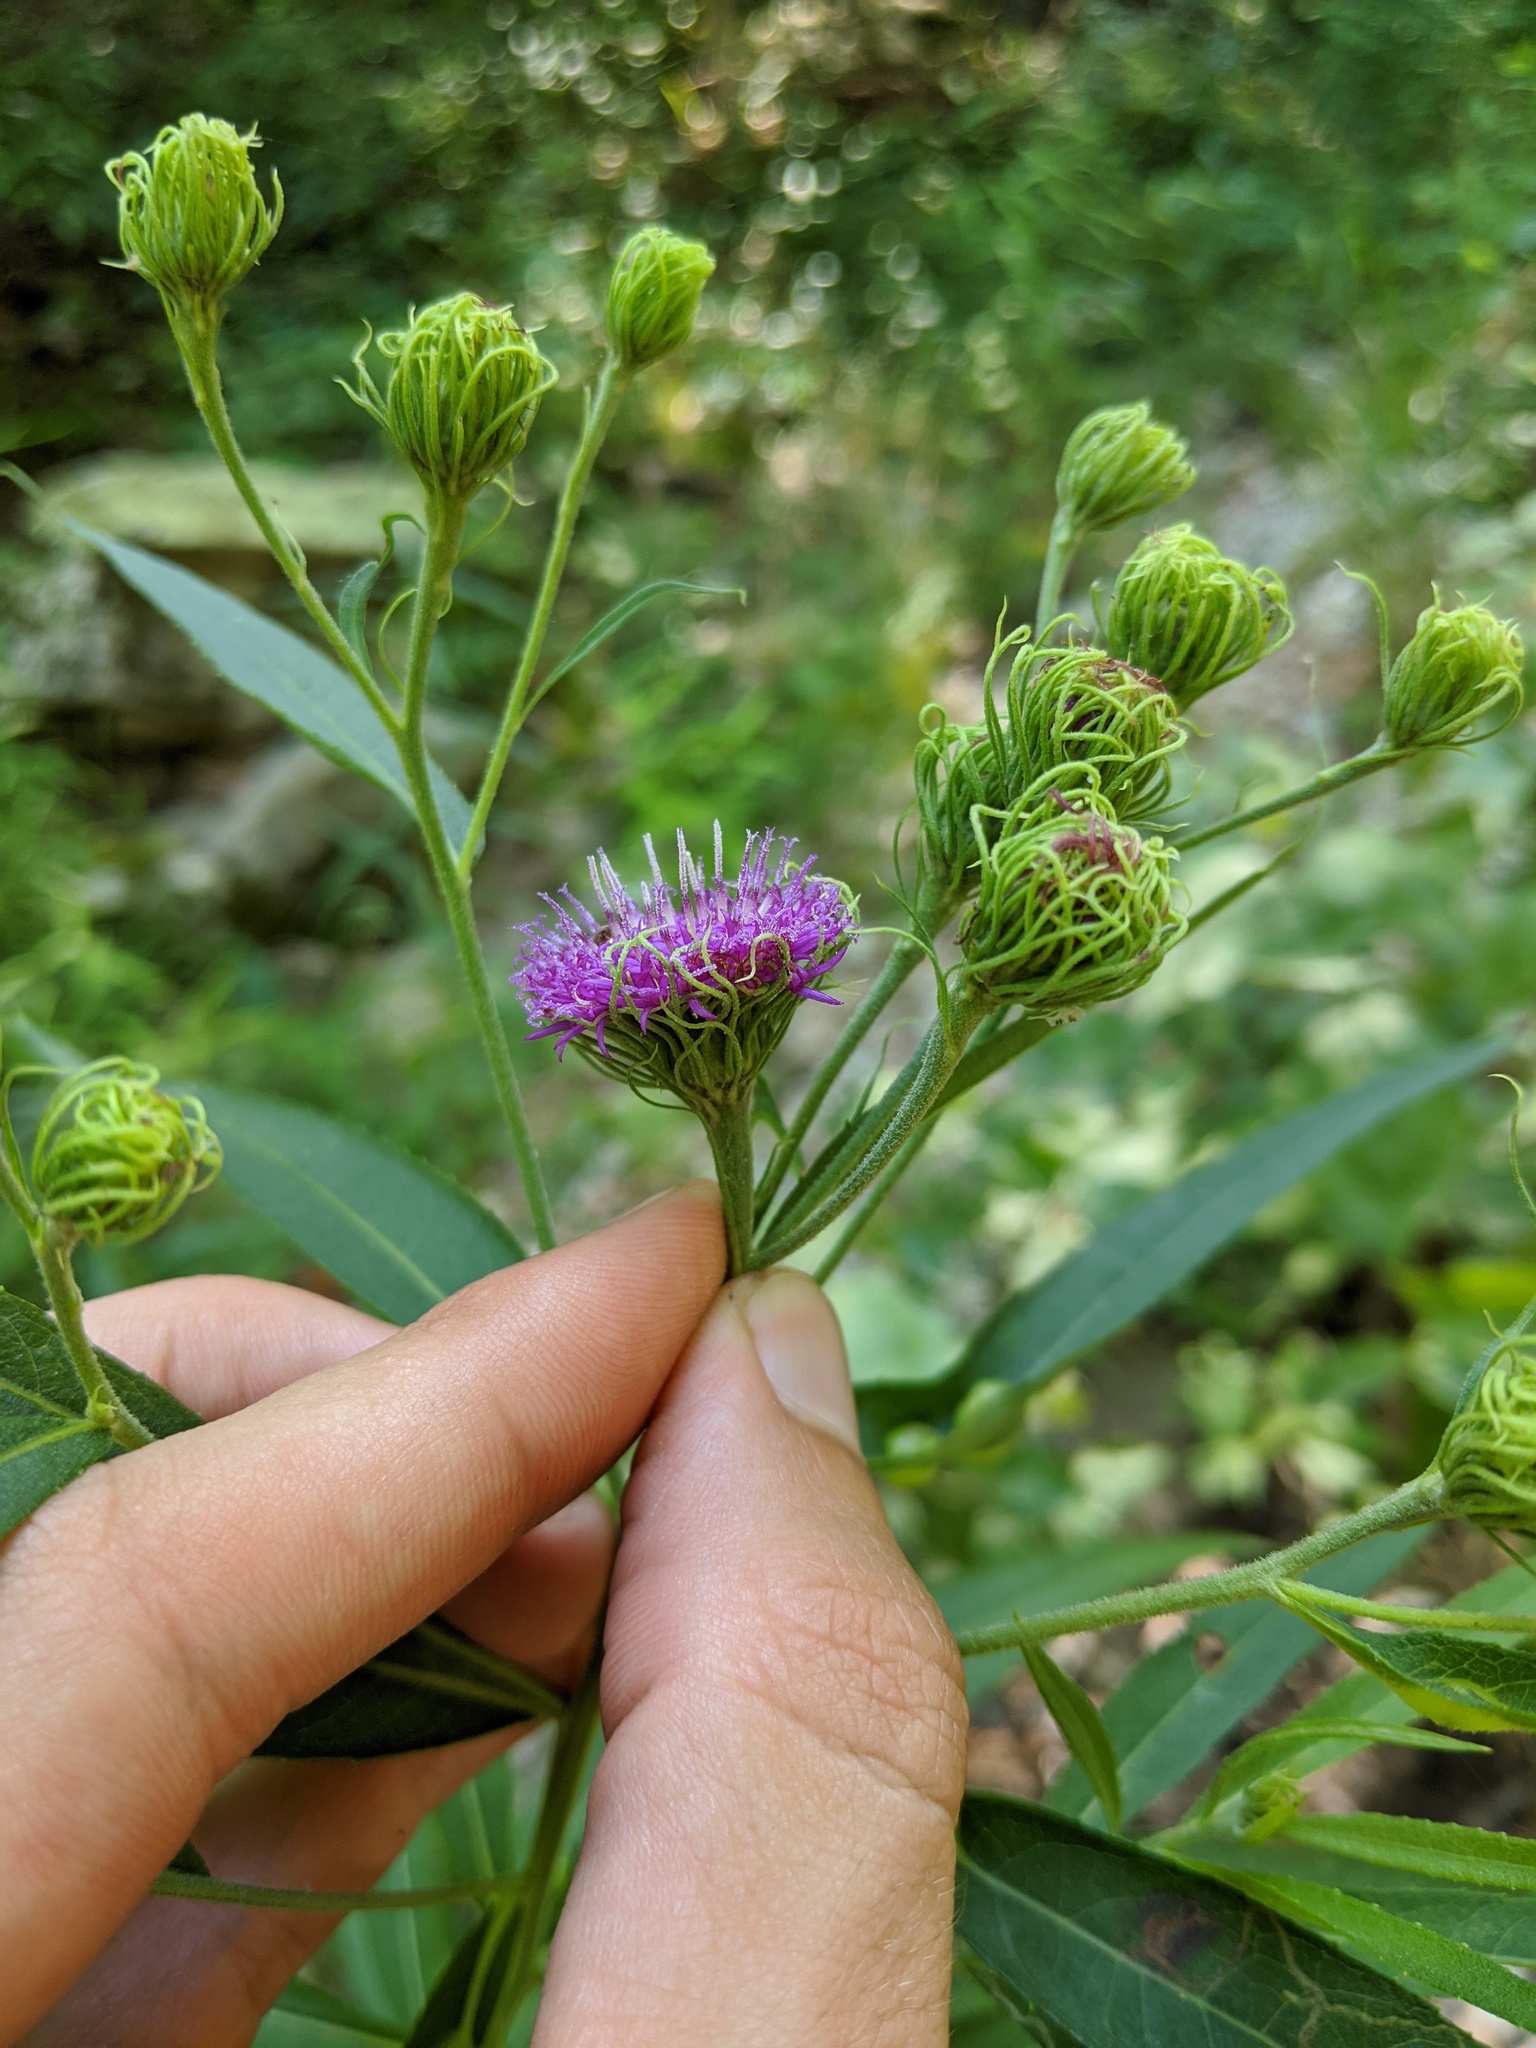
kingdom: Plantae
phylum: Tracheophyta
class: Magnoliopsida
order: Asterales
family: Asteraceae
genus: Vernonia
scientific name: Vernonia arkansana
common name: Ozark ironweed
